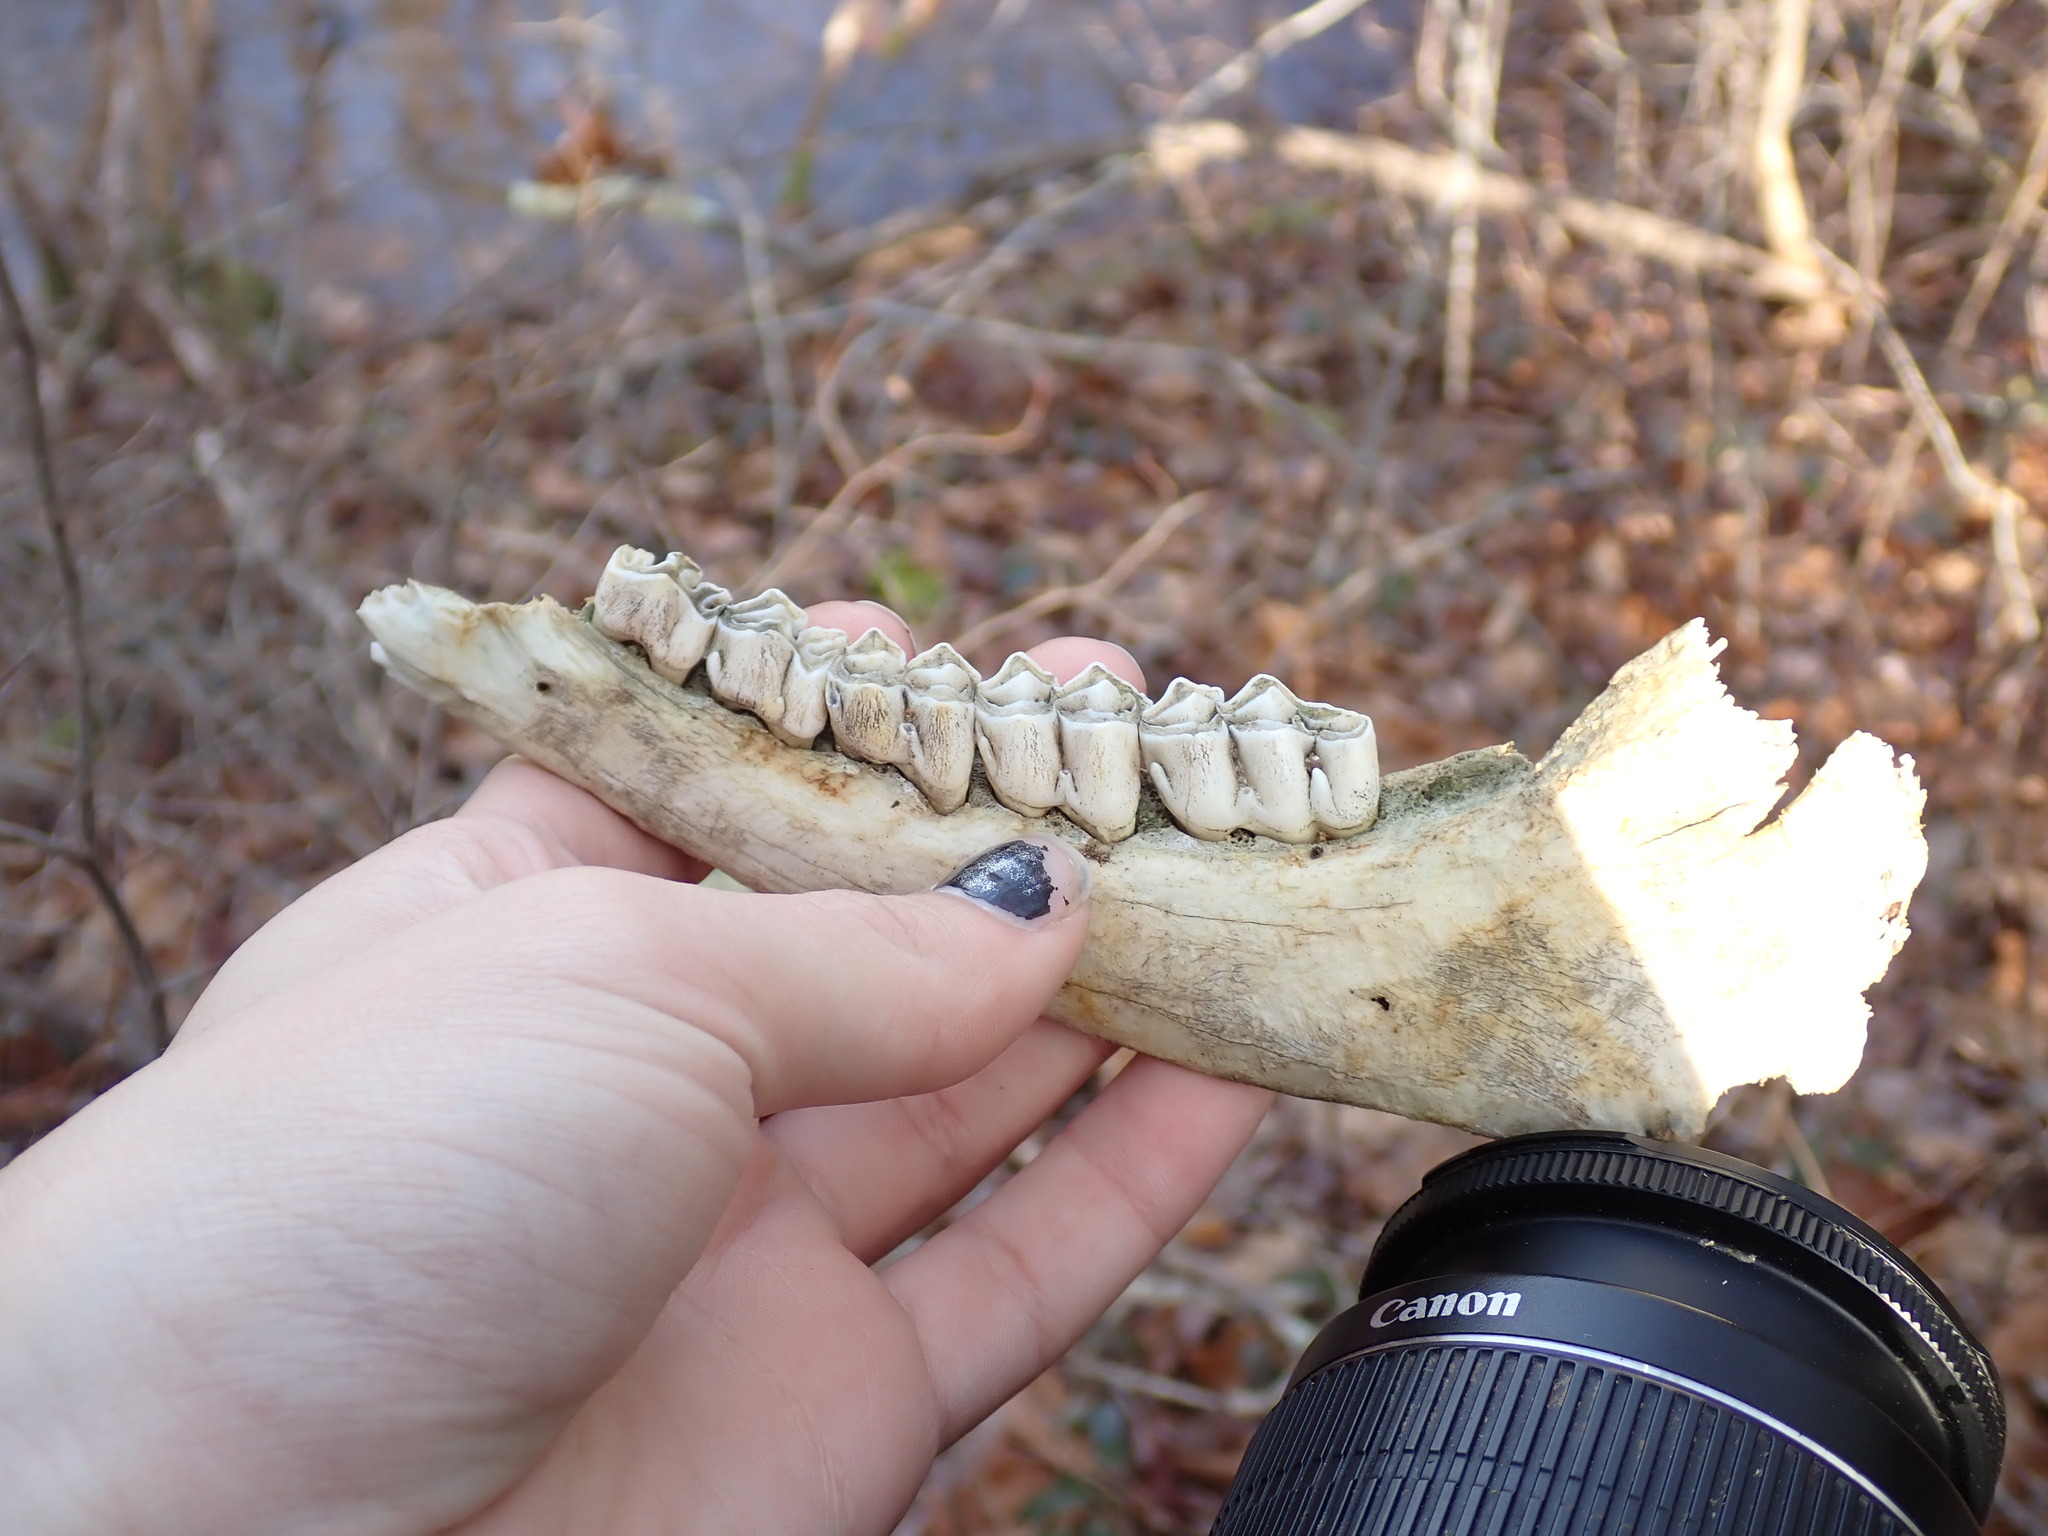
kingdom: Animalia
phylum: Chordata
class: Mammalia
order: Artiodactyla
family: Cervidae
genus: Odocoileus
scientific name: Odocoileus virginianus
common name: White-tailed deer
